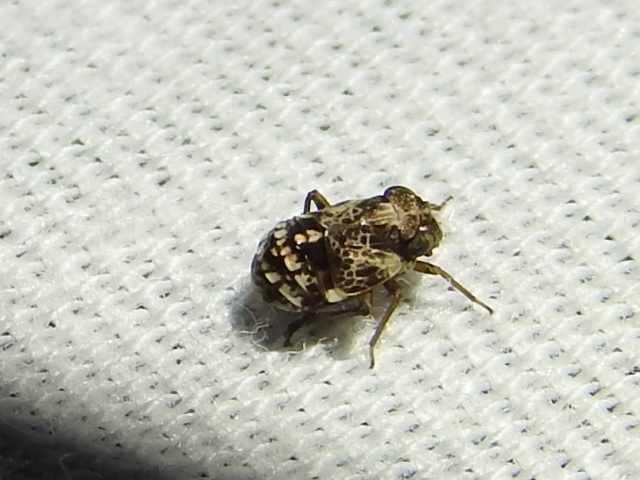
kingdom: Animalia
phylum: Arthropoda
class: Insecta
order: Hemiptera
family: Caliscelidae
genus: Bruchomorpha
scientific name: Bruchomorpha decorata
